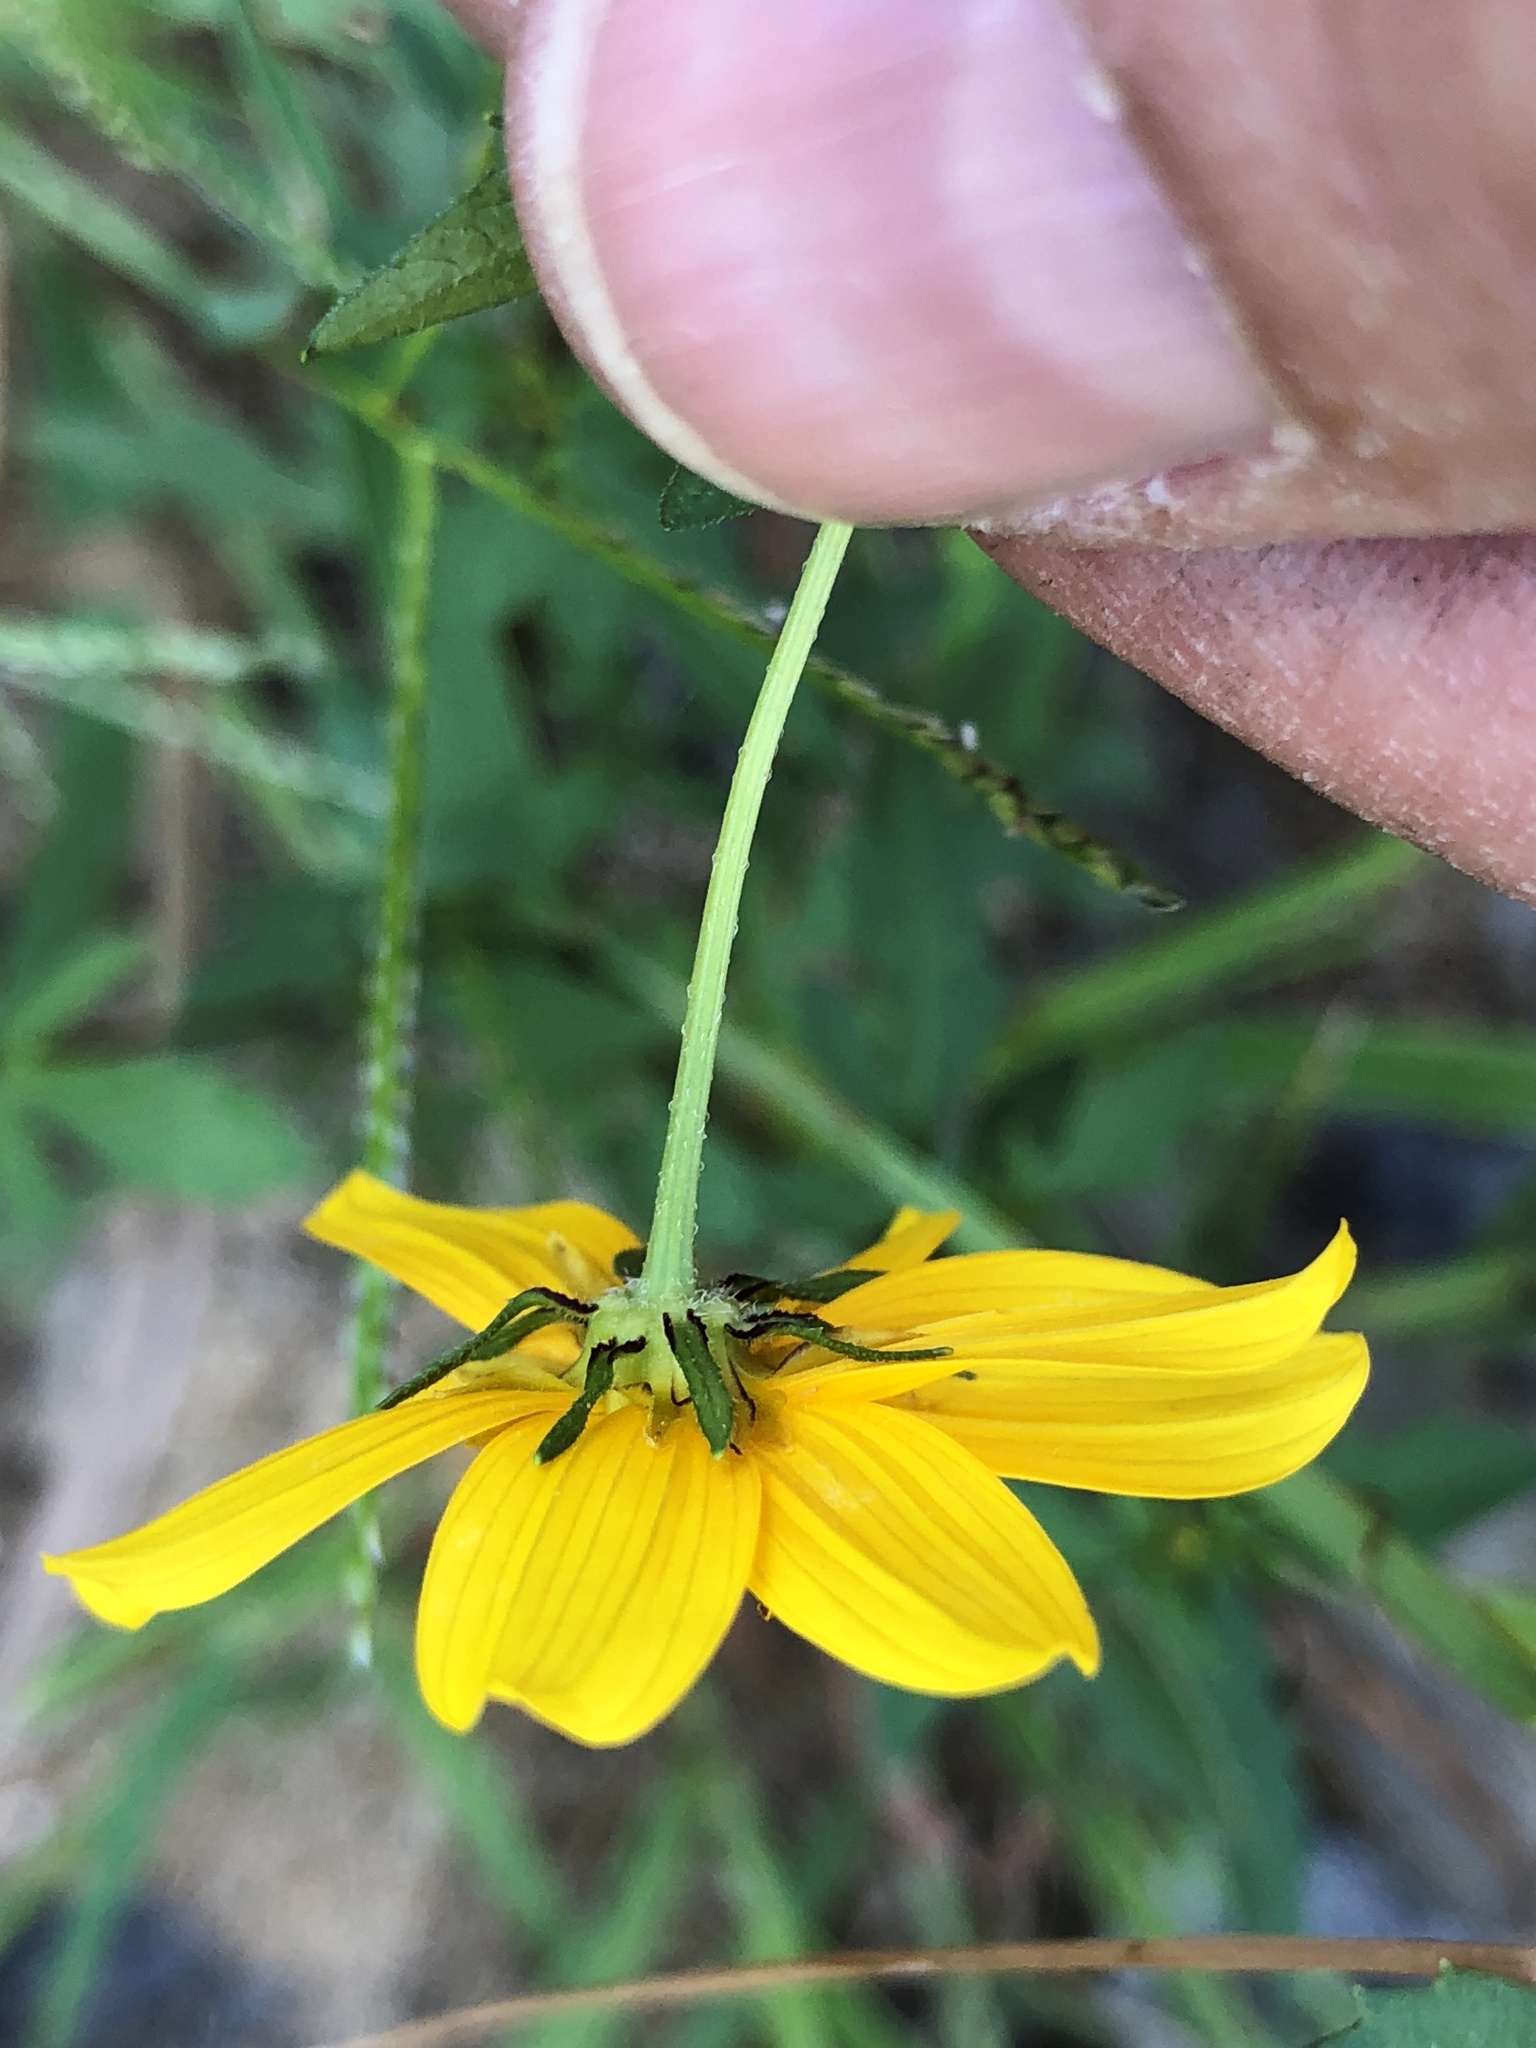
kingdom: Plantae
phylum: Tracheophyta
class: Magnoliopsida
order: Asterales
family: Asteraceae
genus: Bidens
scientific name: Bidens aristosa
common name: Western tickseed
